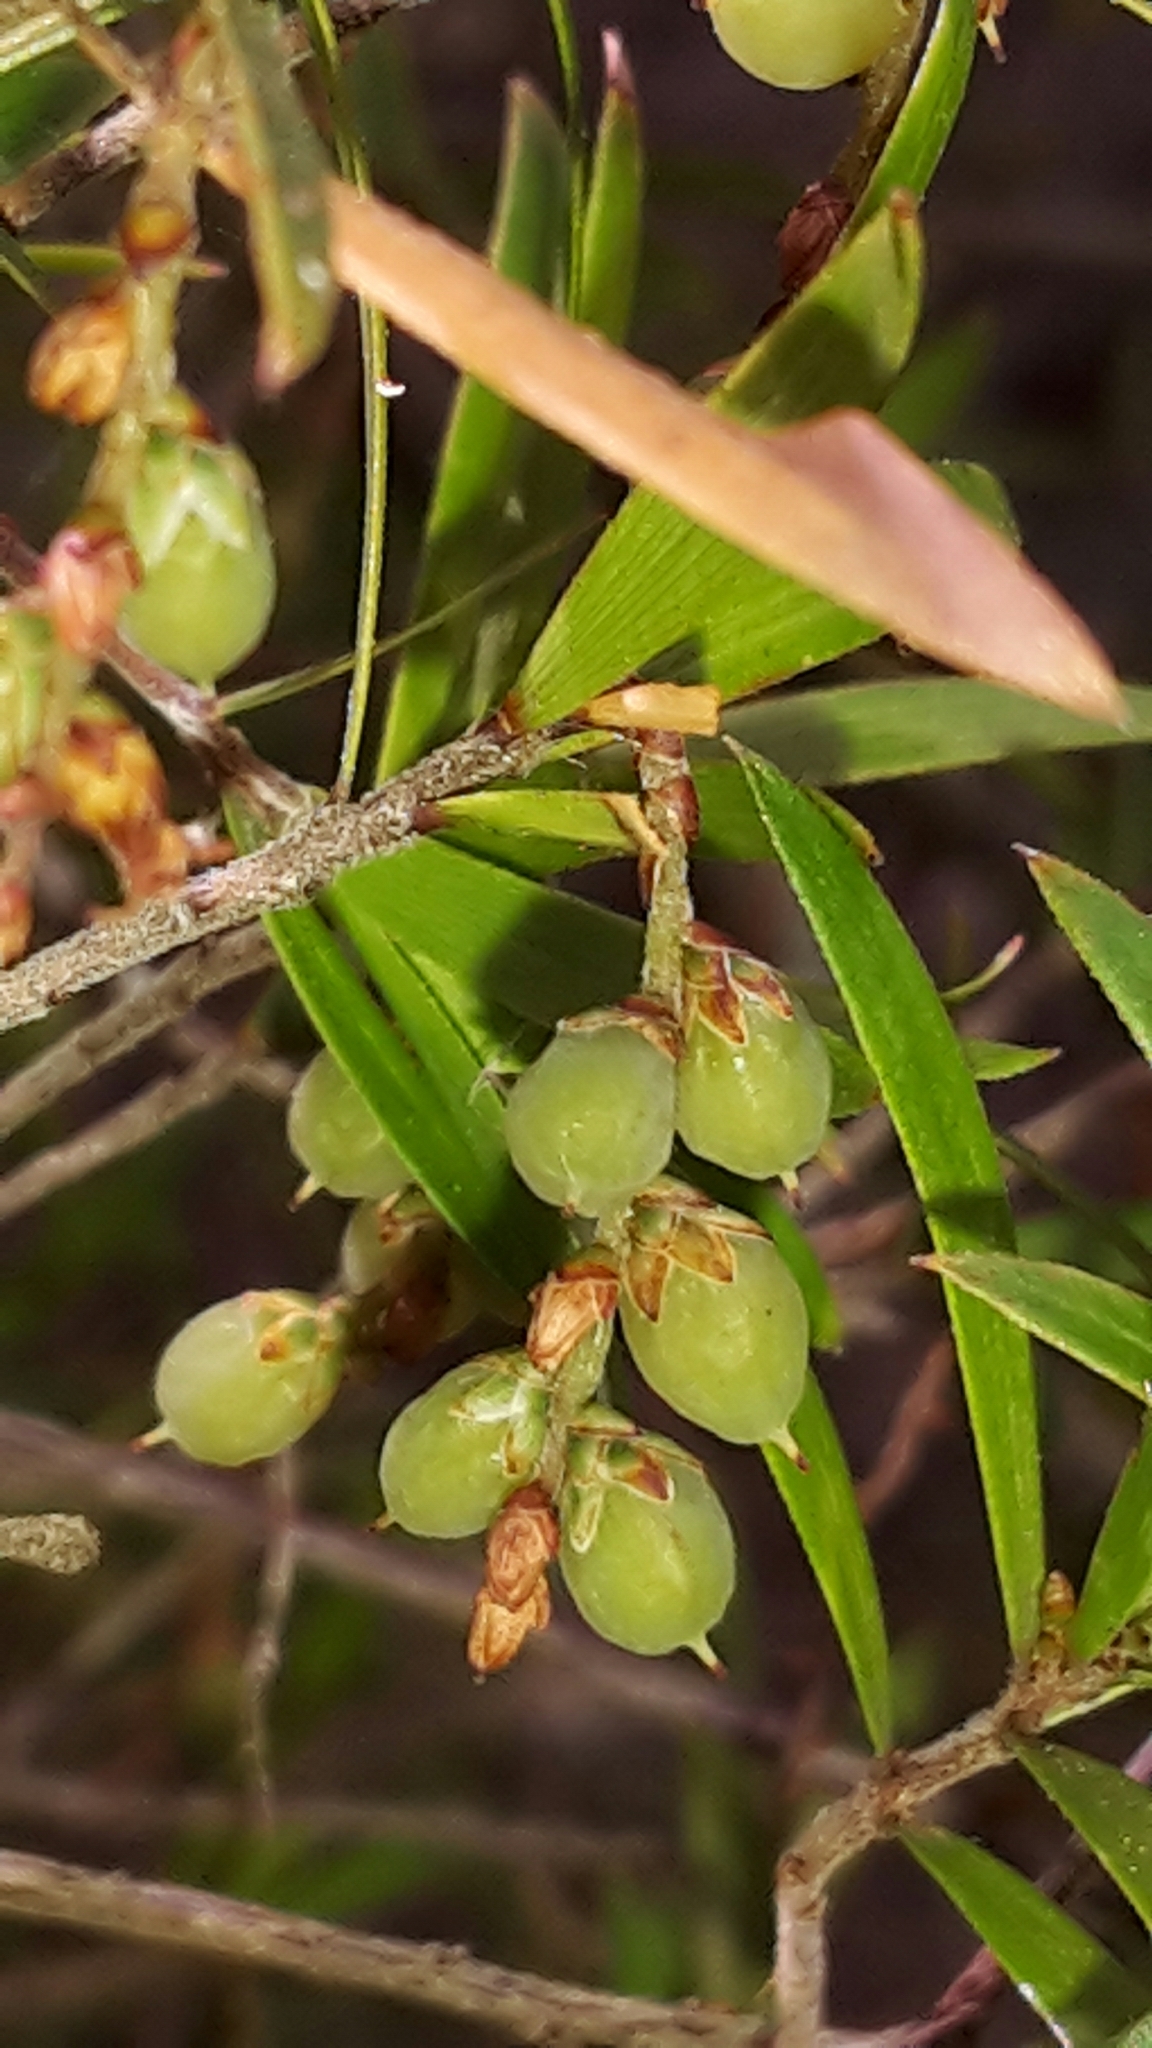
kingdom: Plantae
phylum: Tracheophyta
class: Magnoliopsida
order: Ericales
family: Ericaceae
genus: Leucopogon
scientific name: Leucopogon fasciculatus
